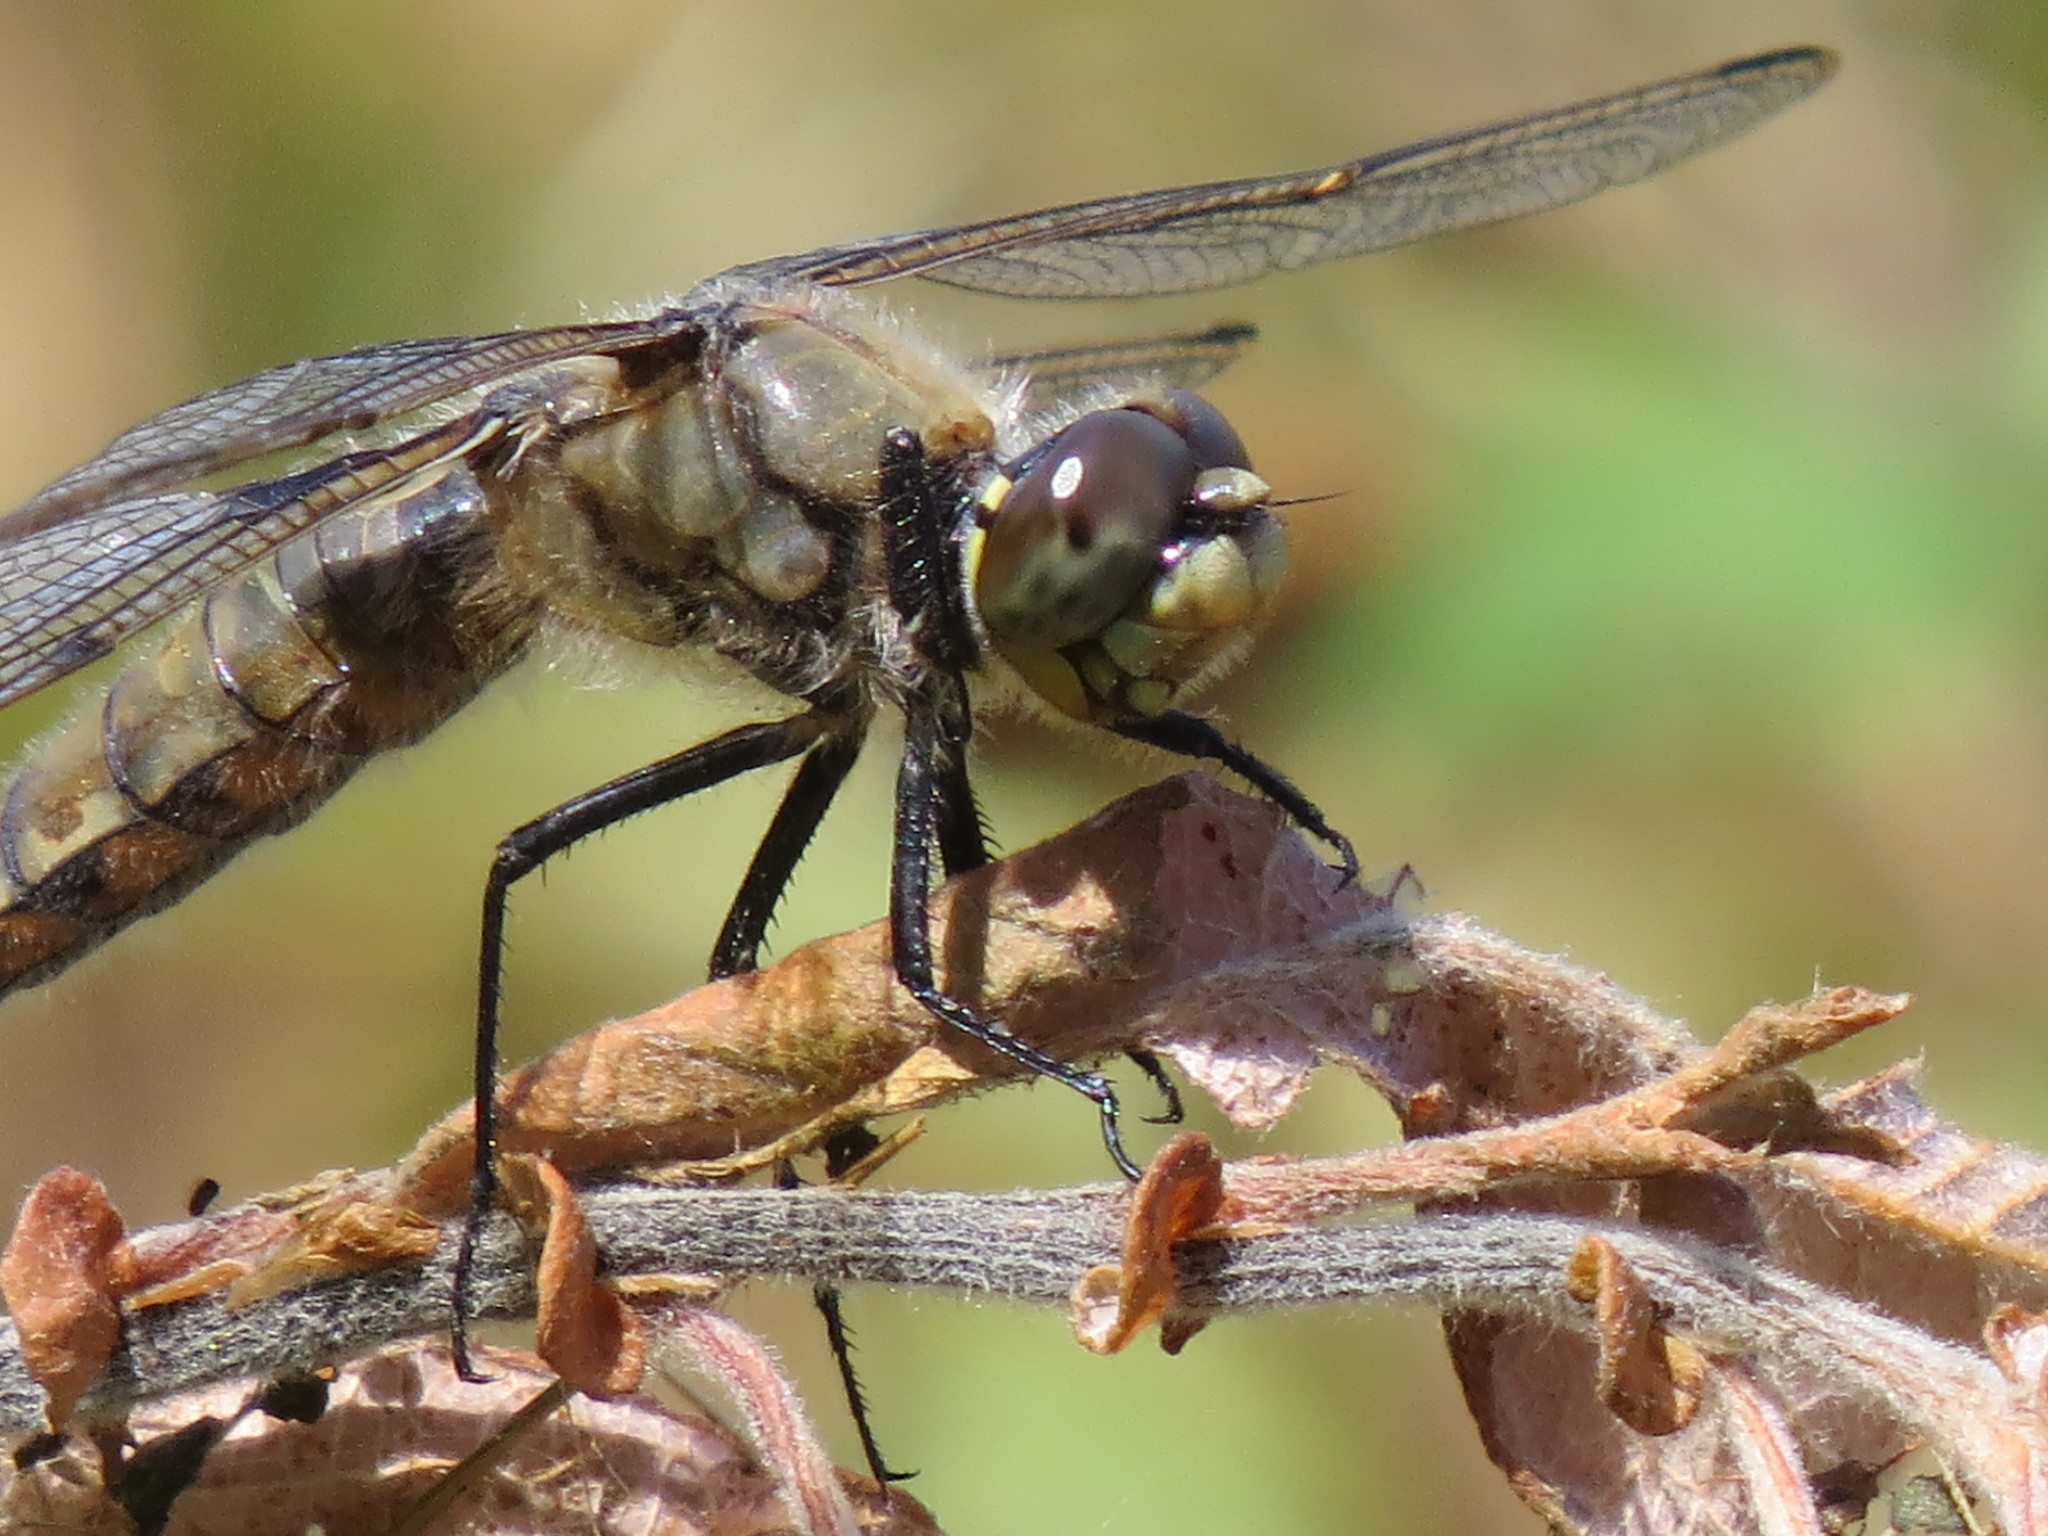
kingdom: Animalia
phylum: Arthropoda
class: Insecta
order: Odonata
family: Libellulidae
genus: Libellula
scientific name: Libellula quadrimaculata
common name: Four-spotted chaser
